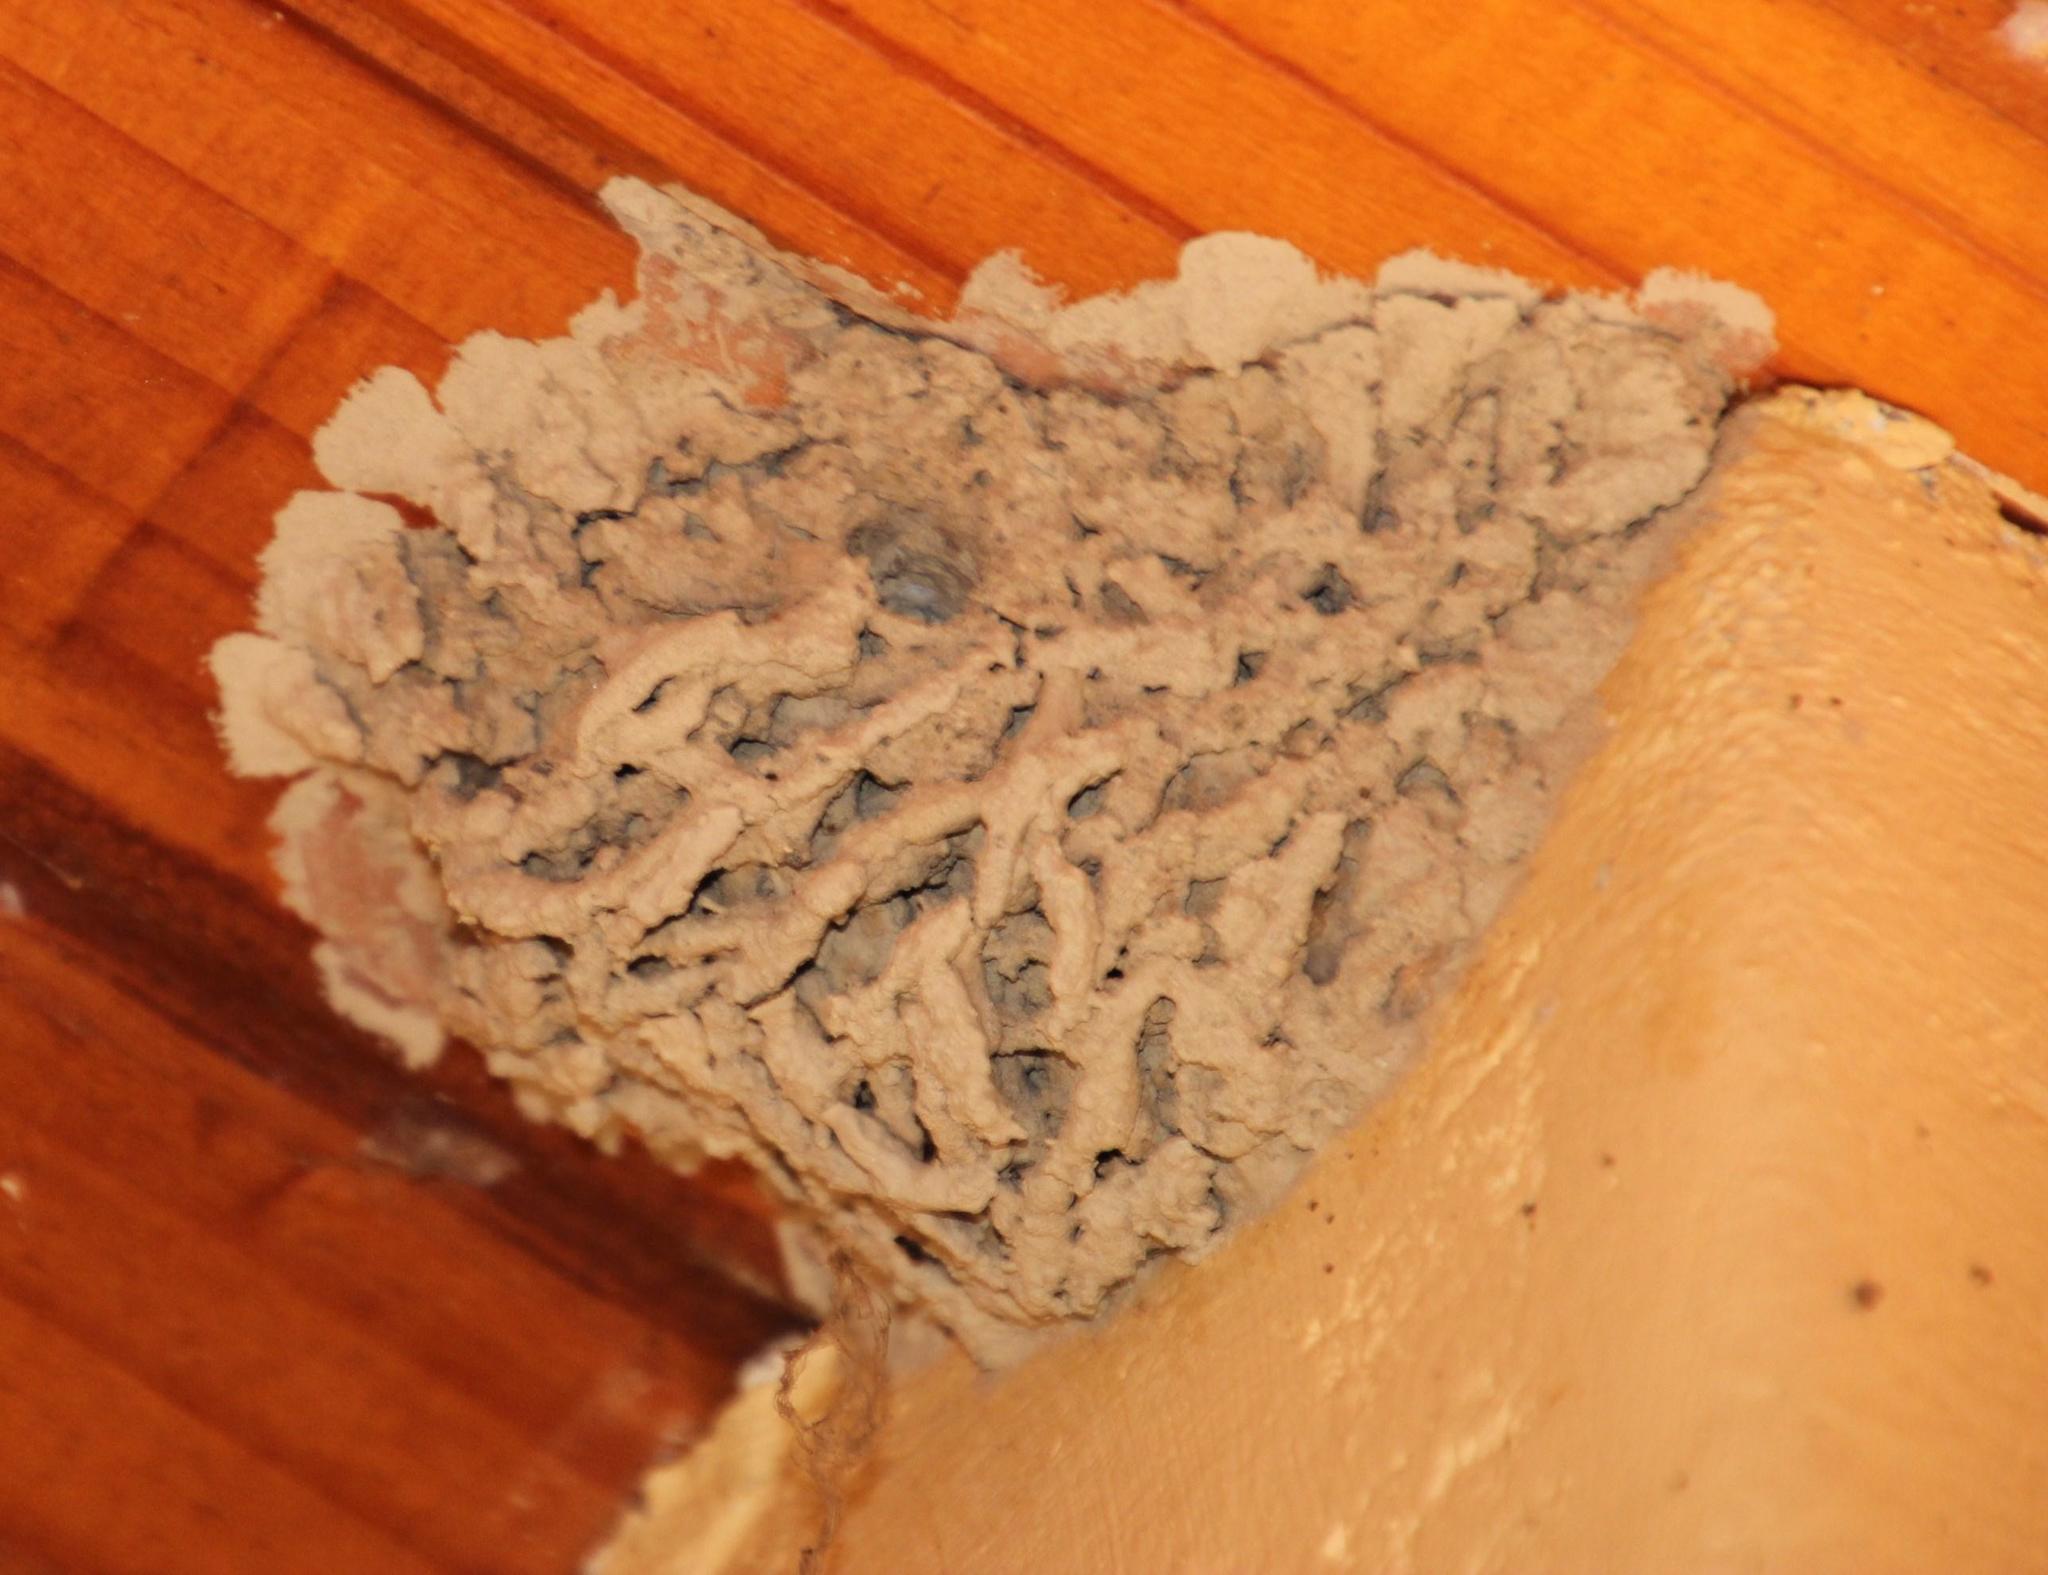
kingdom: Animalia
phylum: Arthropoda
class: Insecta
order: Hymenoptera
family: Eumenidae
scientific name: Eumenidae
